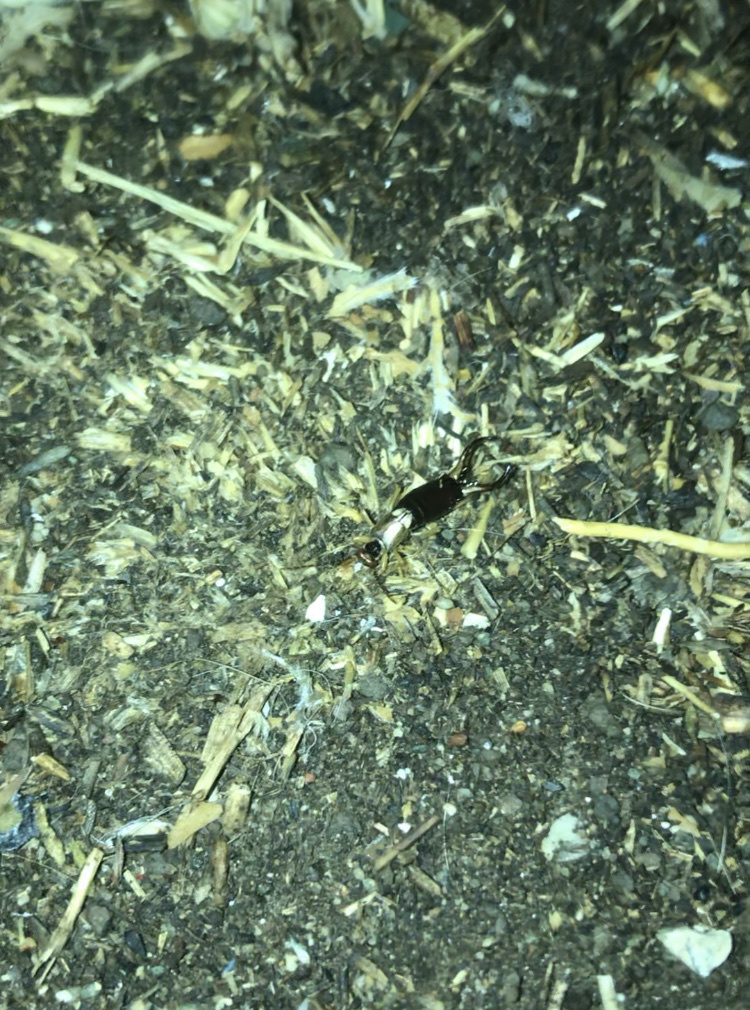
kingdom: Animalia
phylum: Arthropoda
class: Insecta
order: Dermaptera
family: Forficulidae
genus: Forficula
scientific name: Forficula dentata
